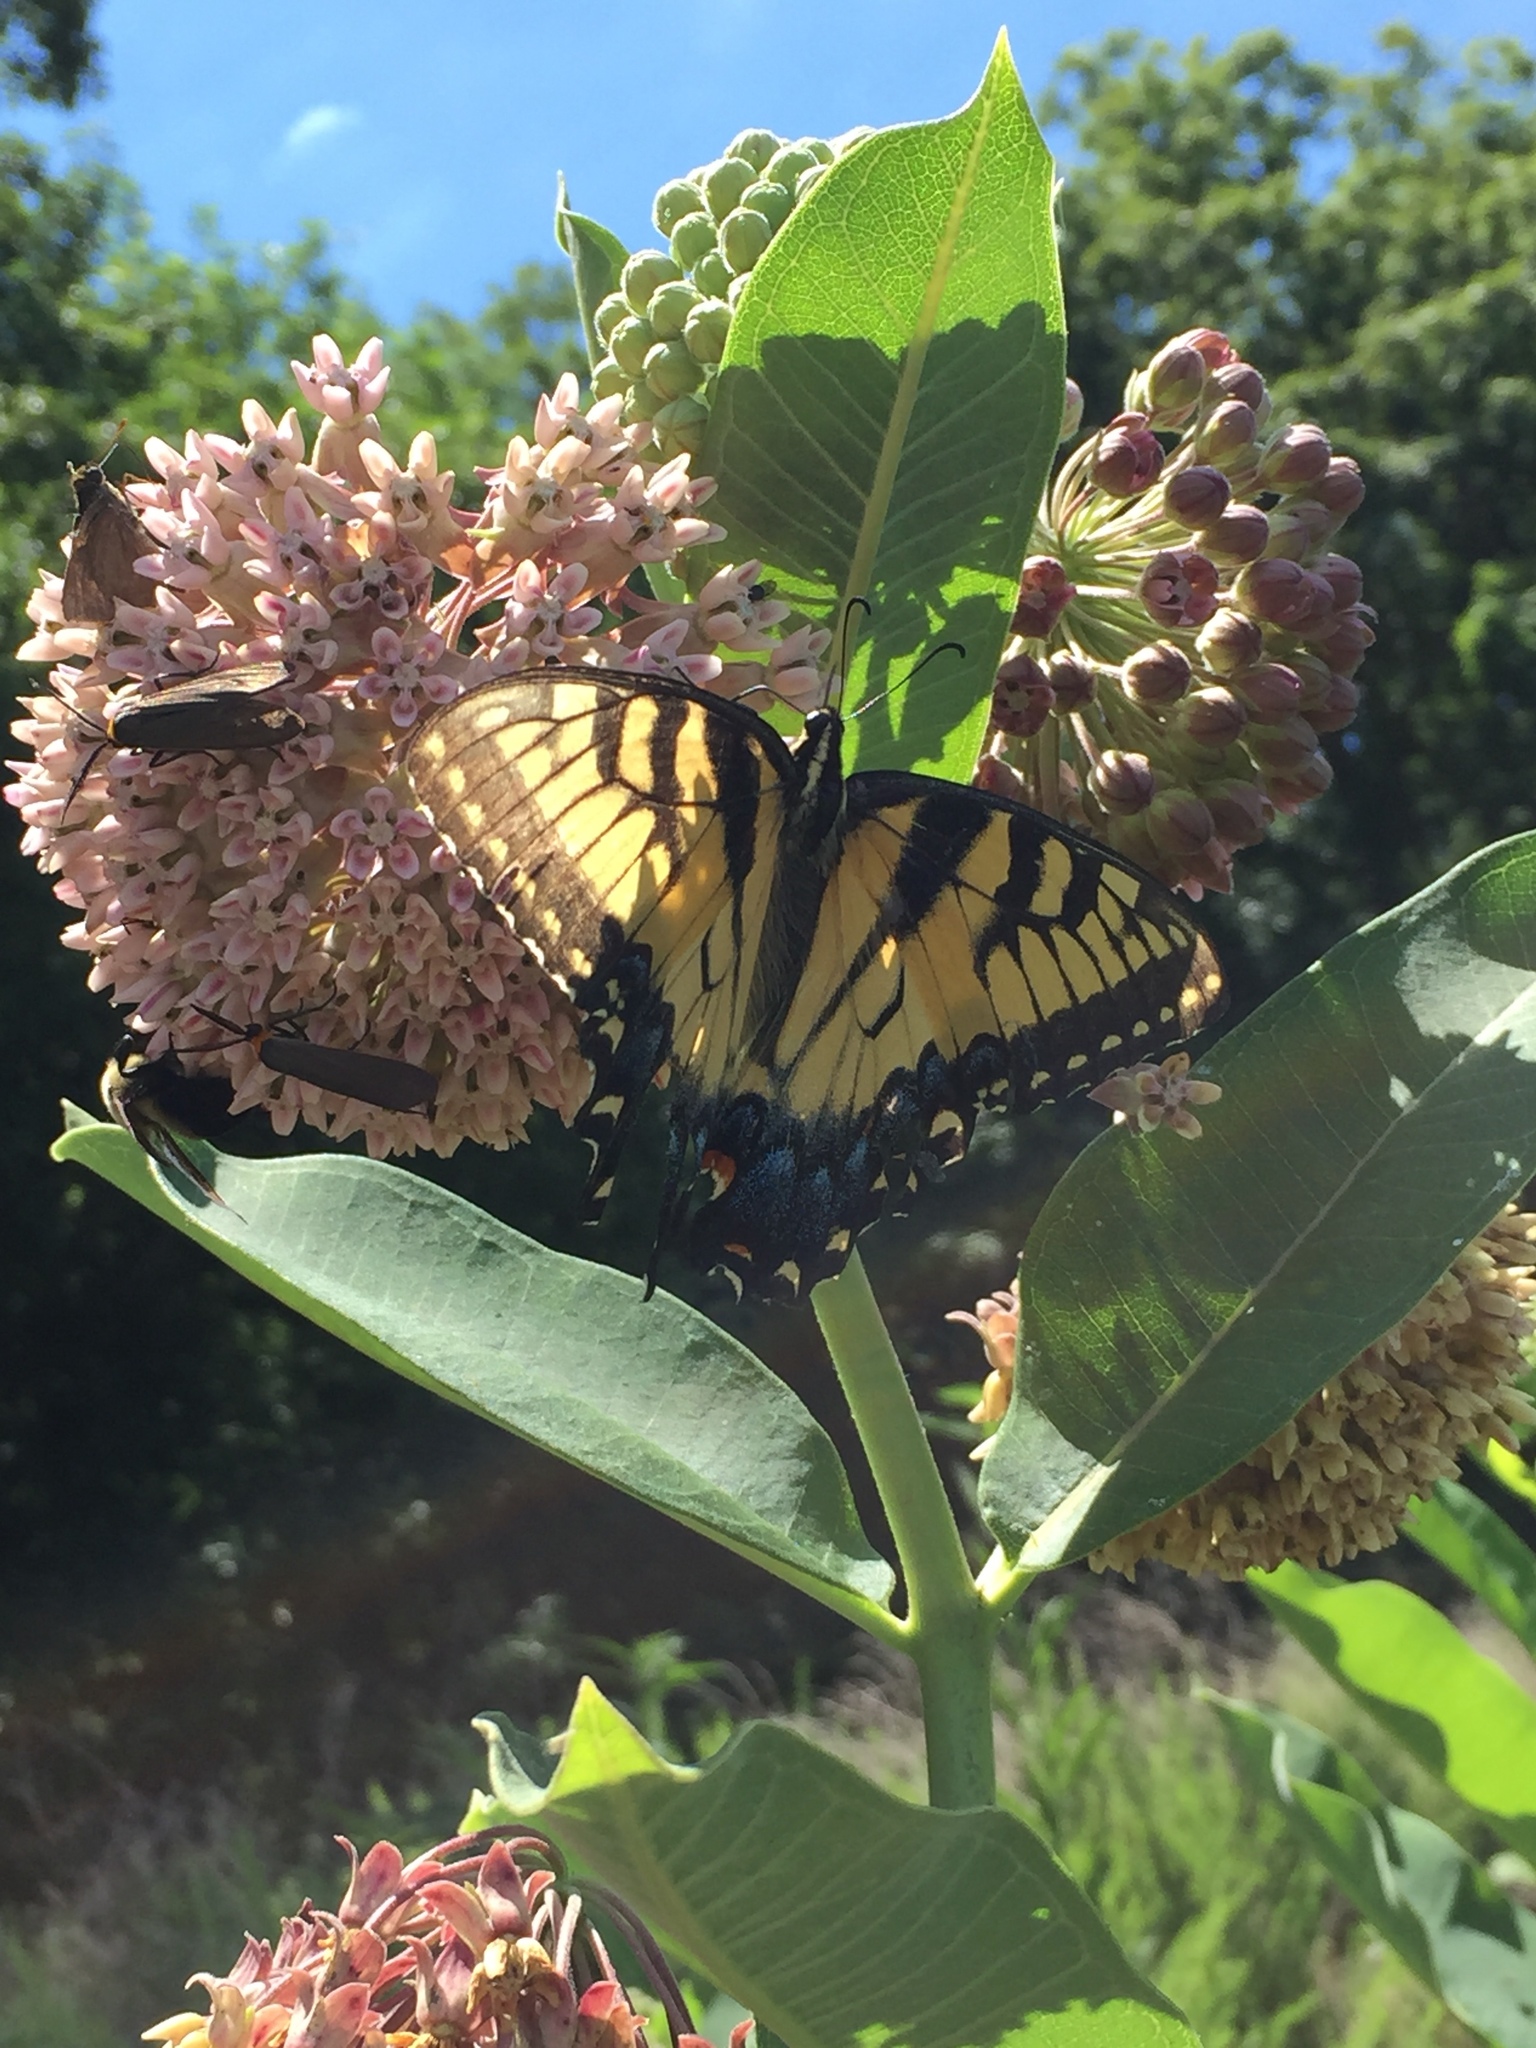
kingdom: Animalia
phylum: Arthropoda
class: Insecta
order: Lepidoptera
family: Papilionidae
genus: Papilio
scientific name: Papilio glaucus
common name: Tiger swallowtail
